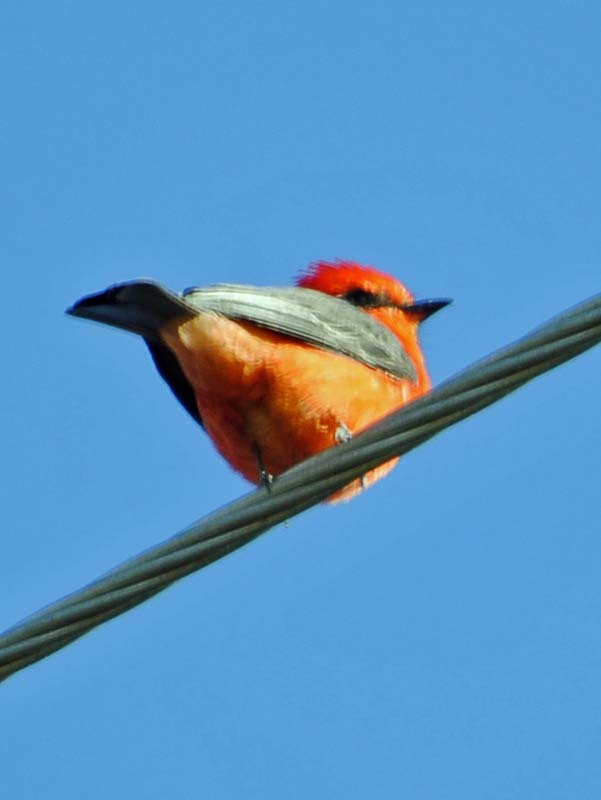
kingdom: Animalia
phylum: Chordata
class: Aves
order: Passeriformes
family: Tyrannidae
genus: Pyrocephalus
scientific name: Pyrocephalus rubinus
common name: Vermilion flycatcher
